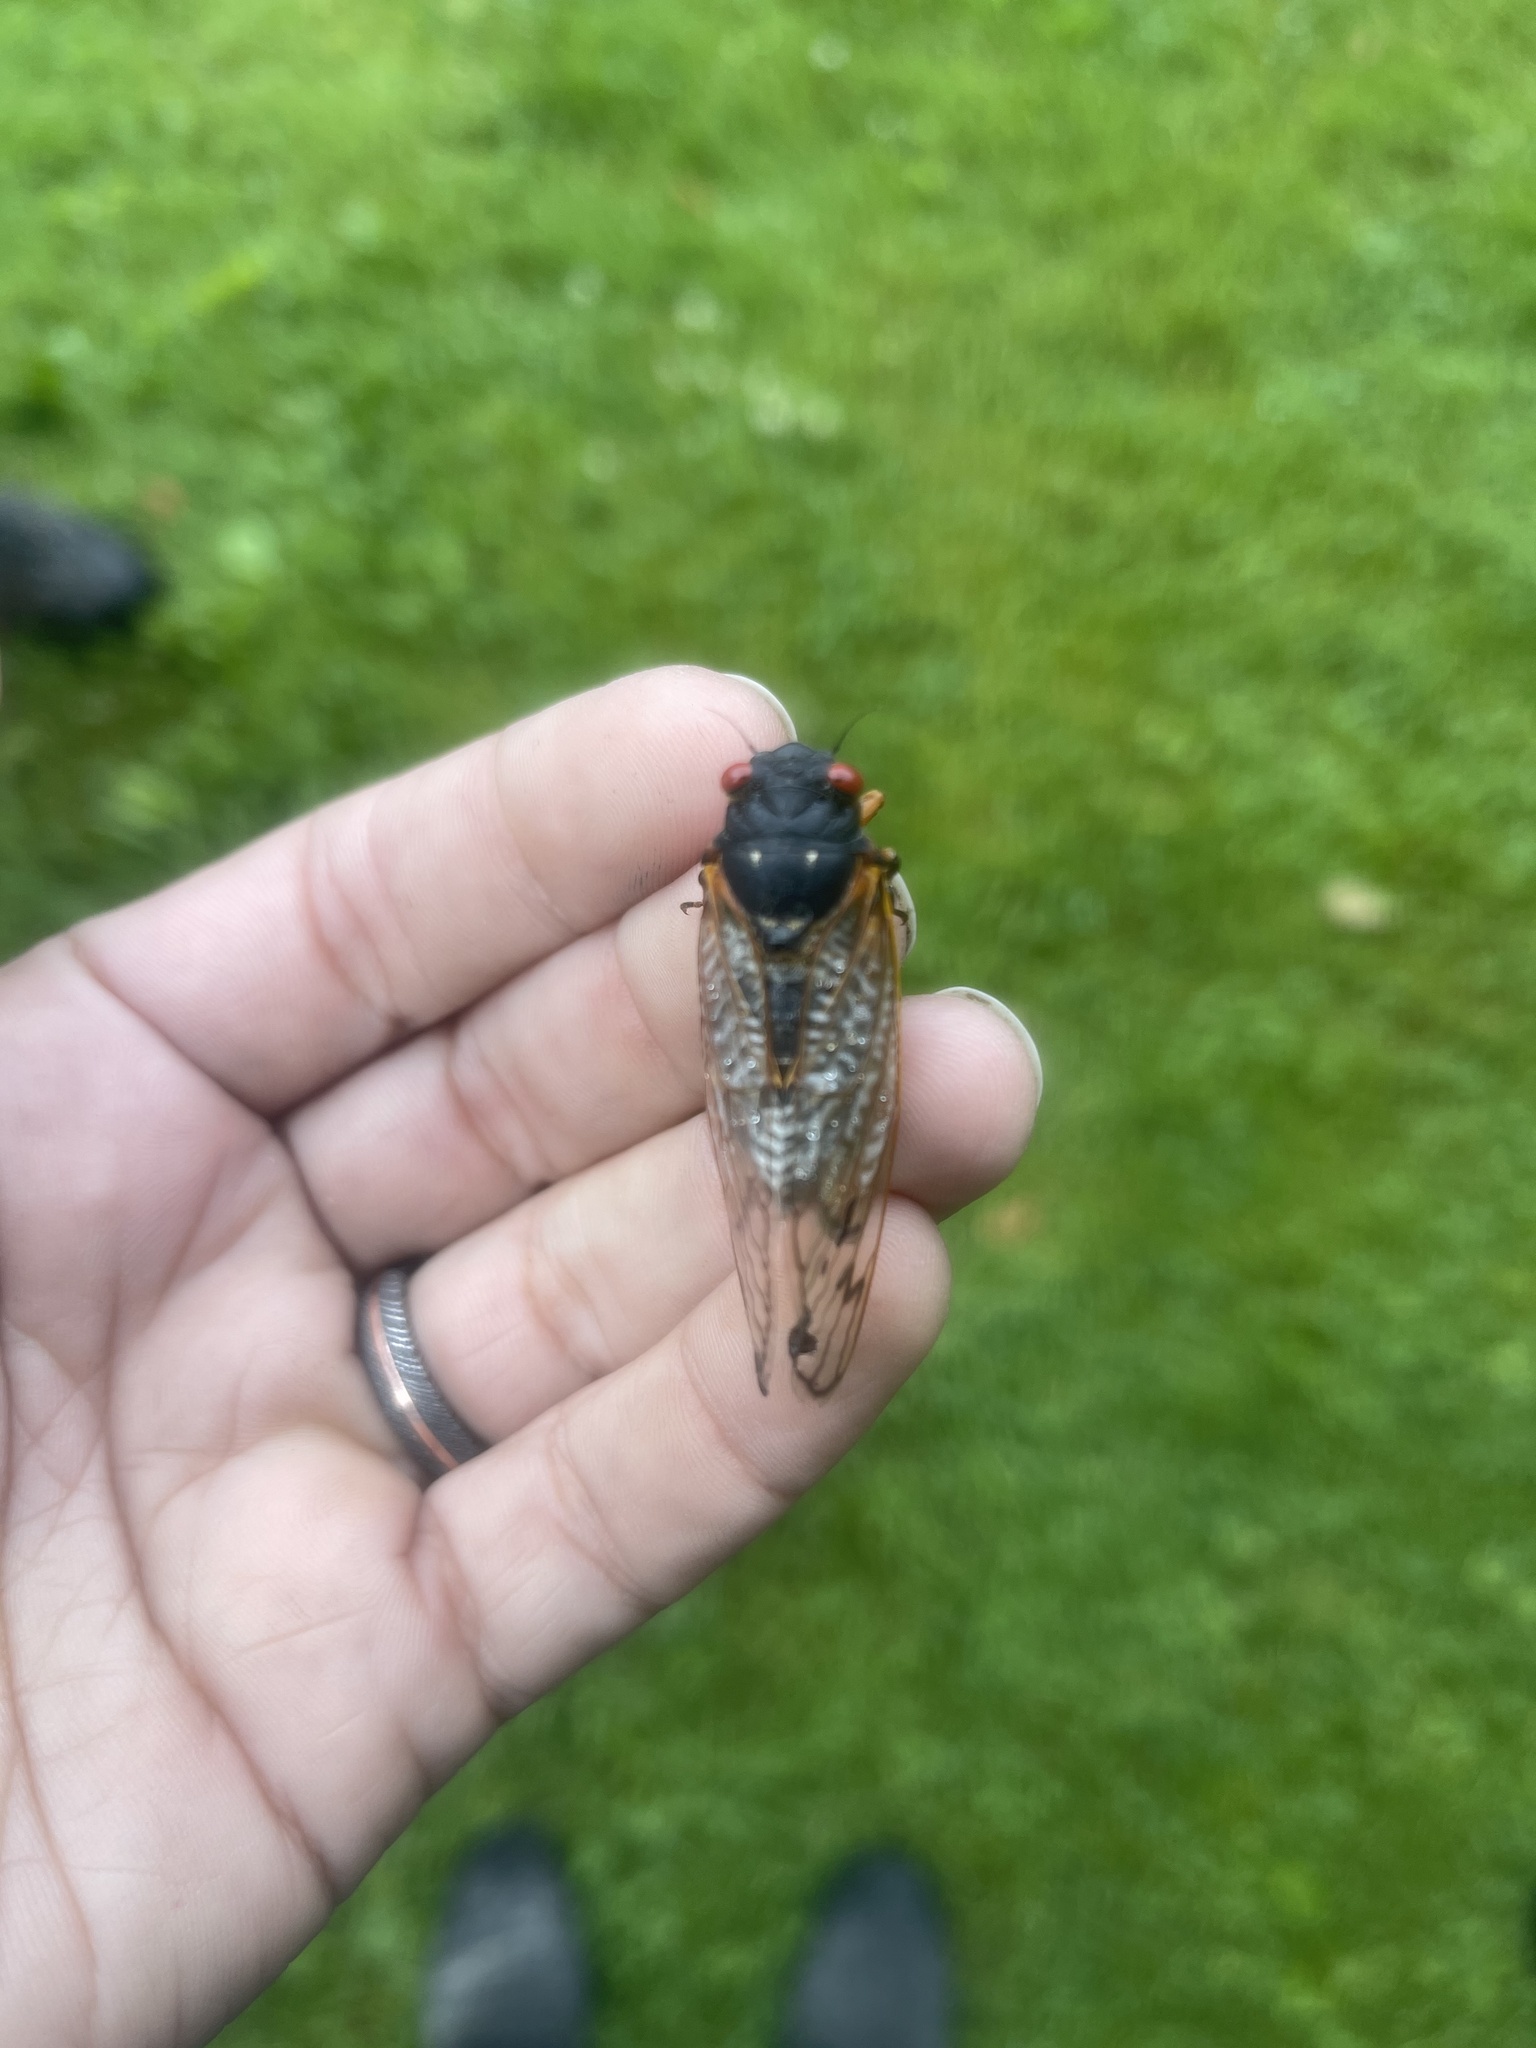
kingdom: Animalia
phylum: Arthropoda
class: Insecta
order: Hemiptera
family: Cicadidae
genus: Magicicada
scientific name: Magicicada
